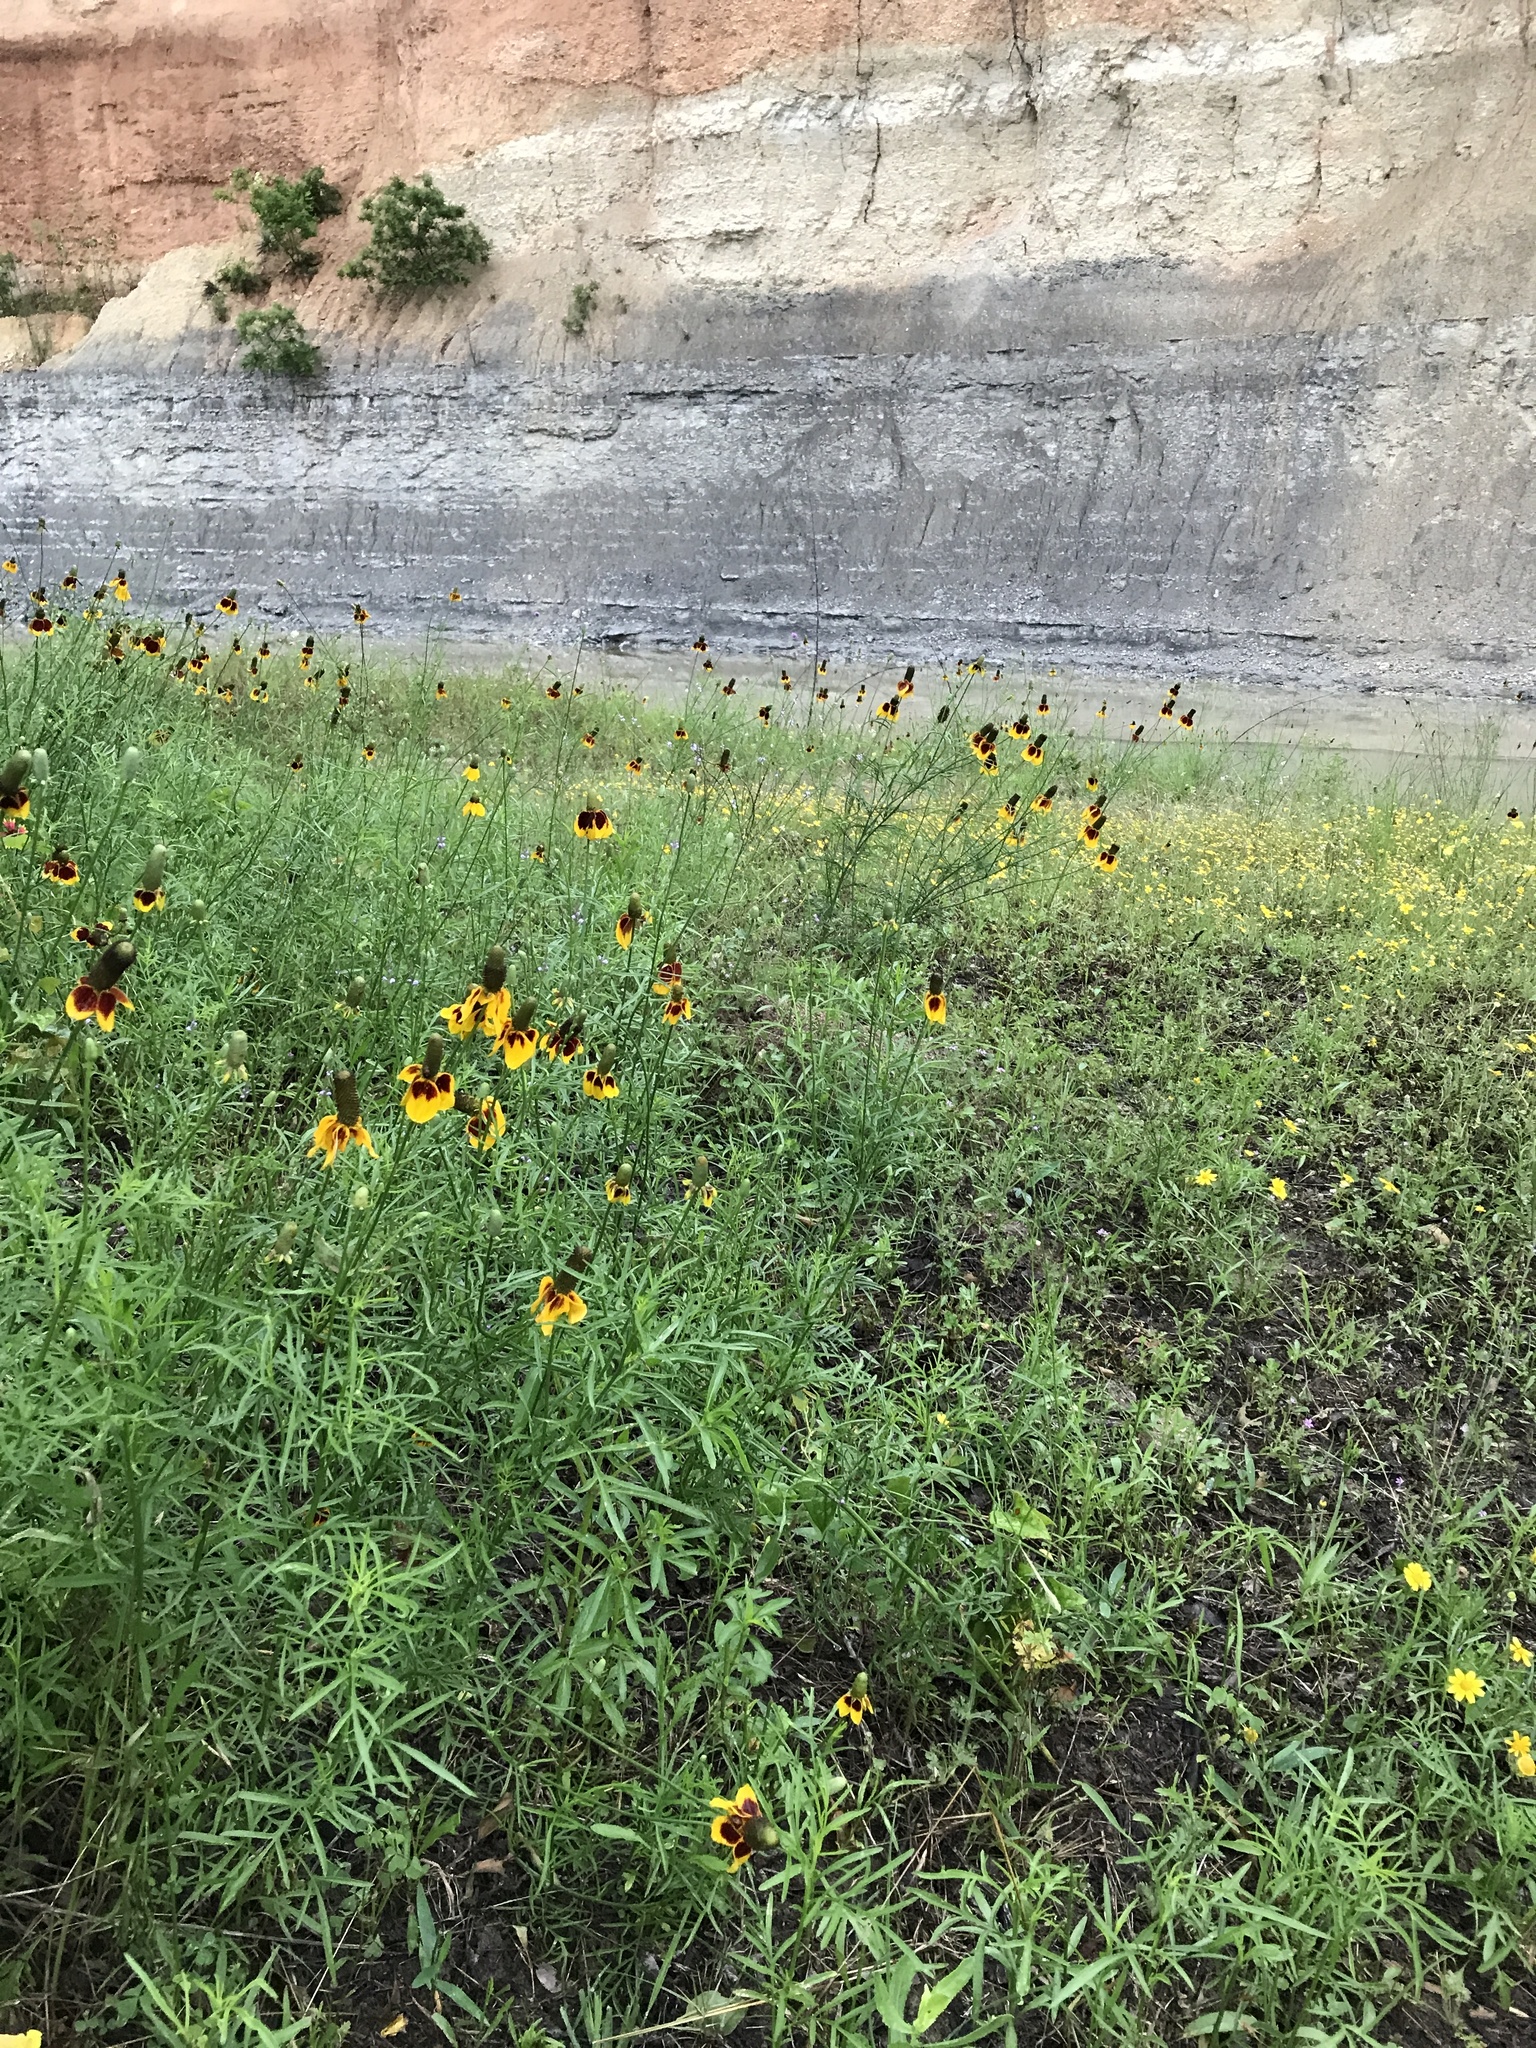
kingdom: Plantae
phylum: Tracheophyta
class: Magnoliopsida
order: Asterales
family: Asteraceae
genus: Ratibida
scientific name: Ratibida columnifera
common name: Prairie coneflower
